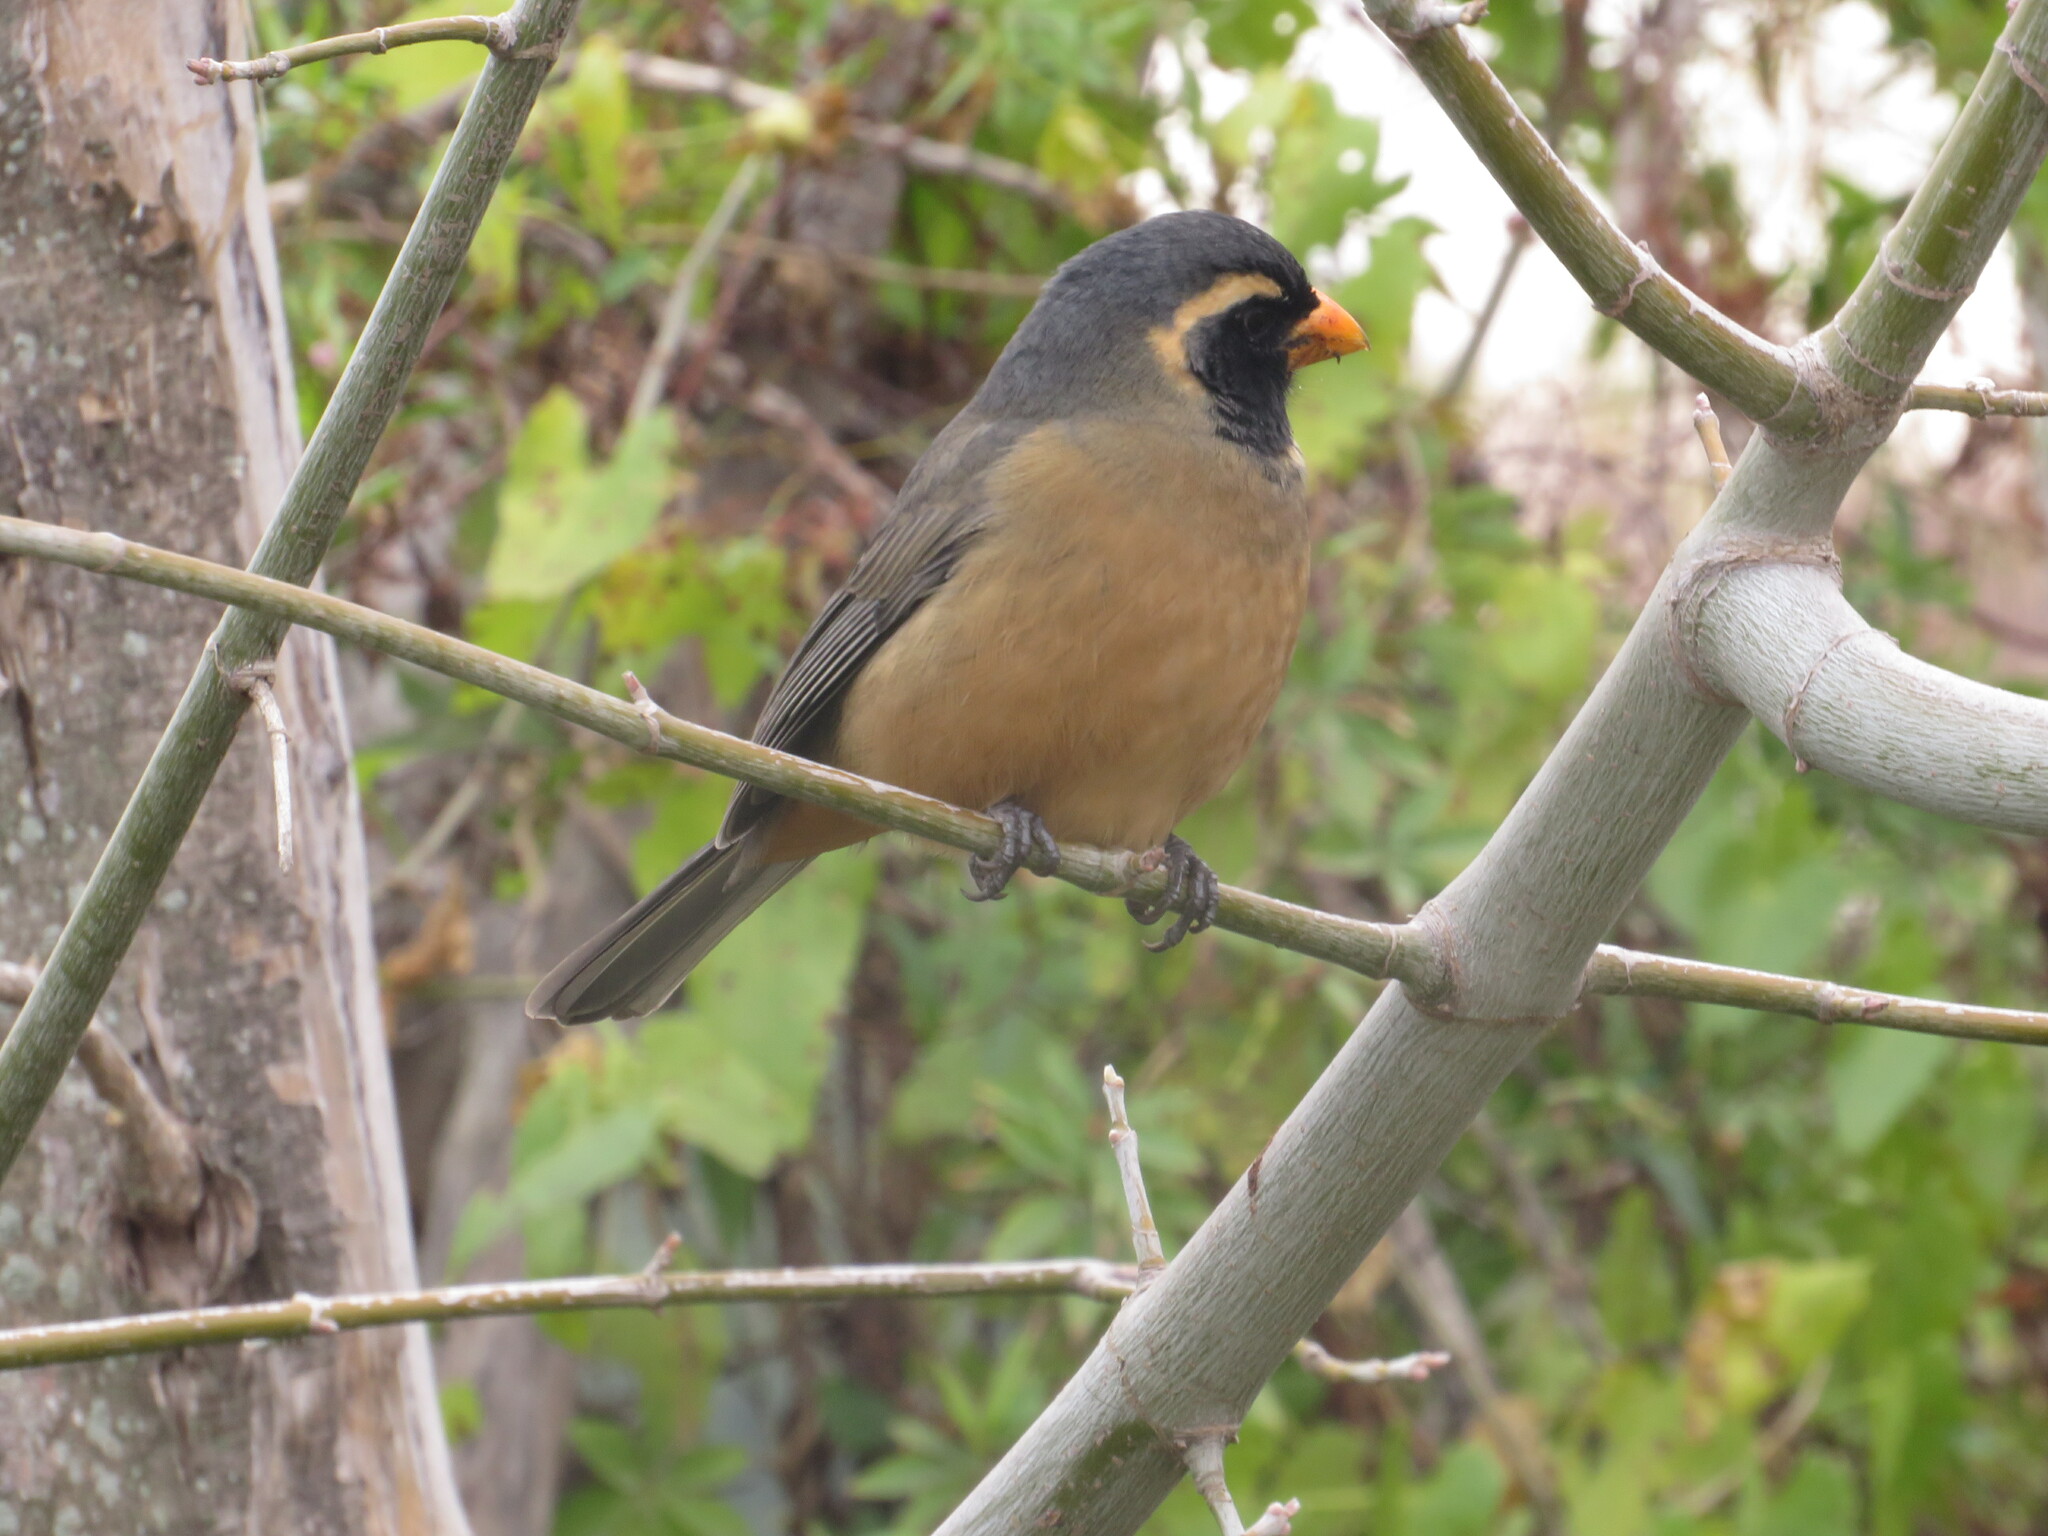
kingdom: Animalia
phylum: Chordata
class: Aves
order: Passeriformes
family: Thraupidae
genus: Saltator
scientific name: Saltator aurantiirostris
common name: Golden-billed saltator
